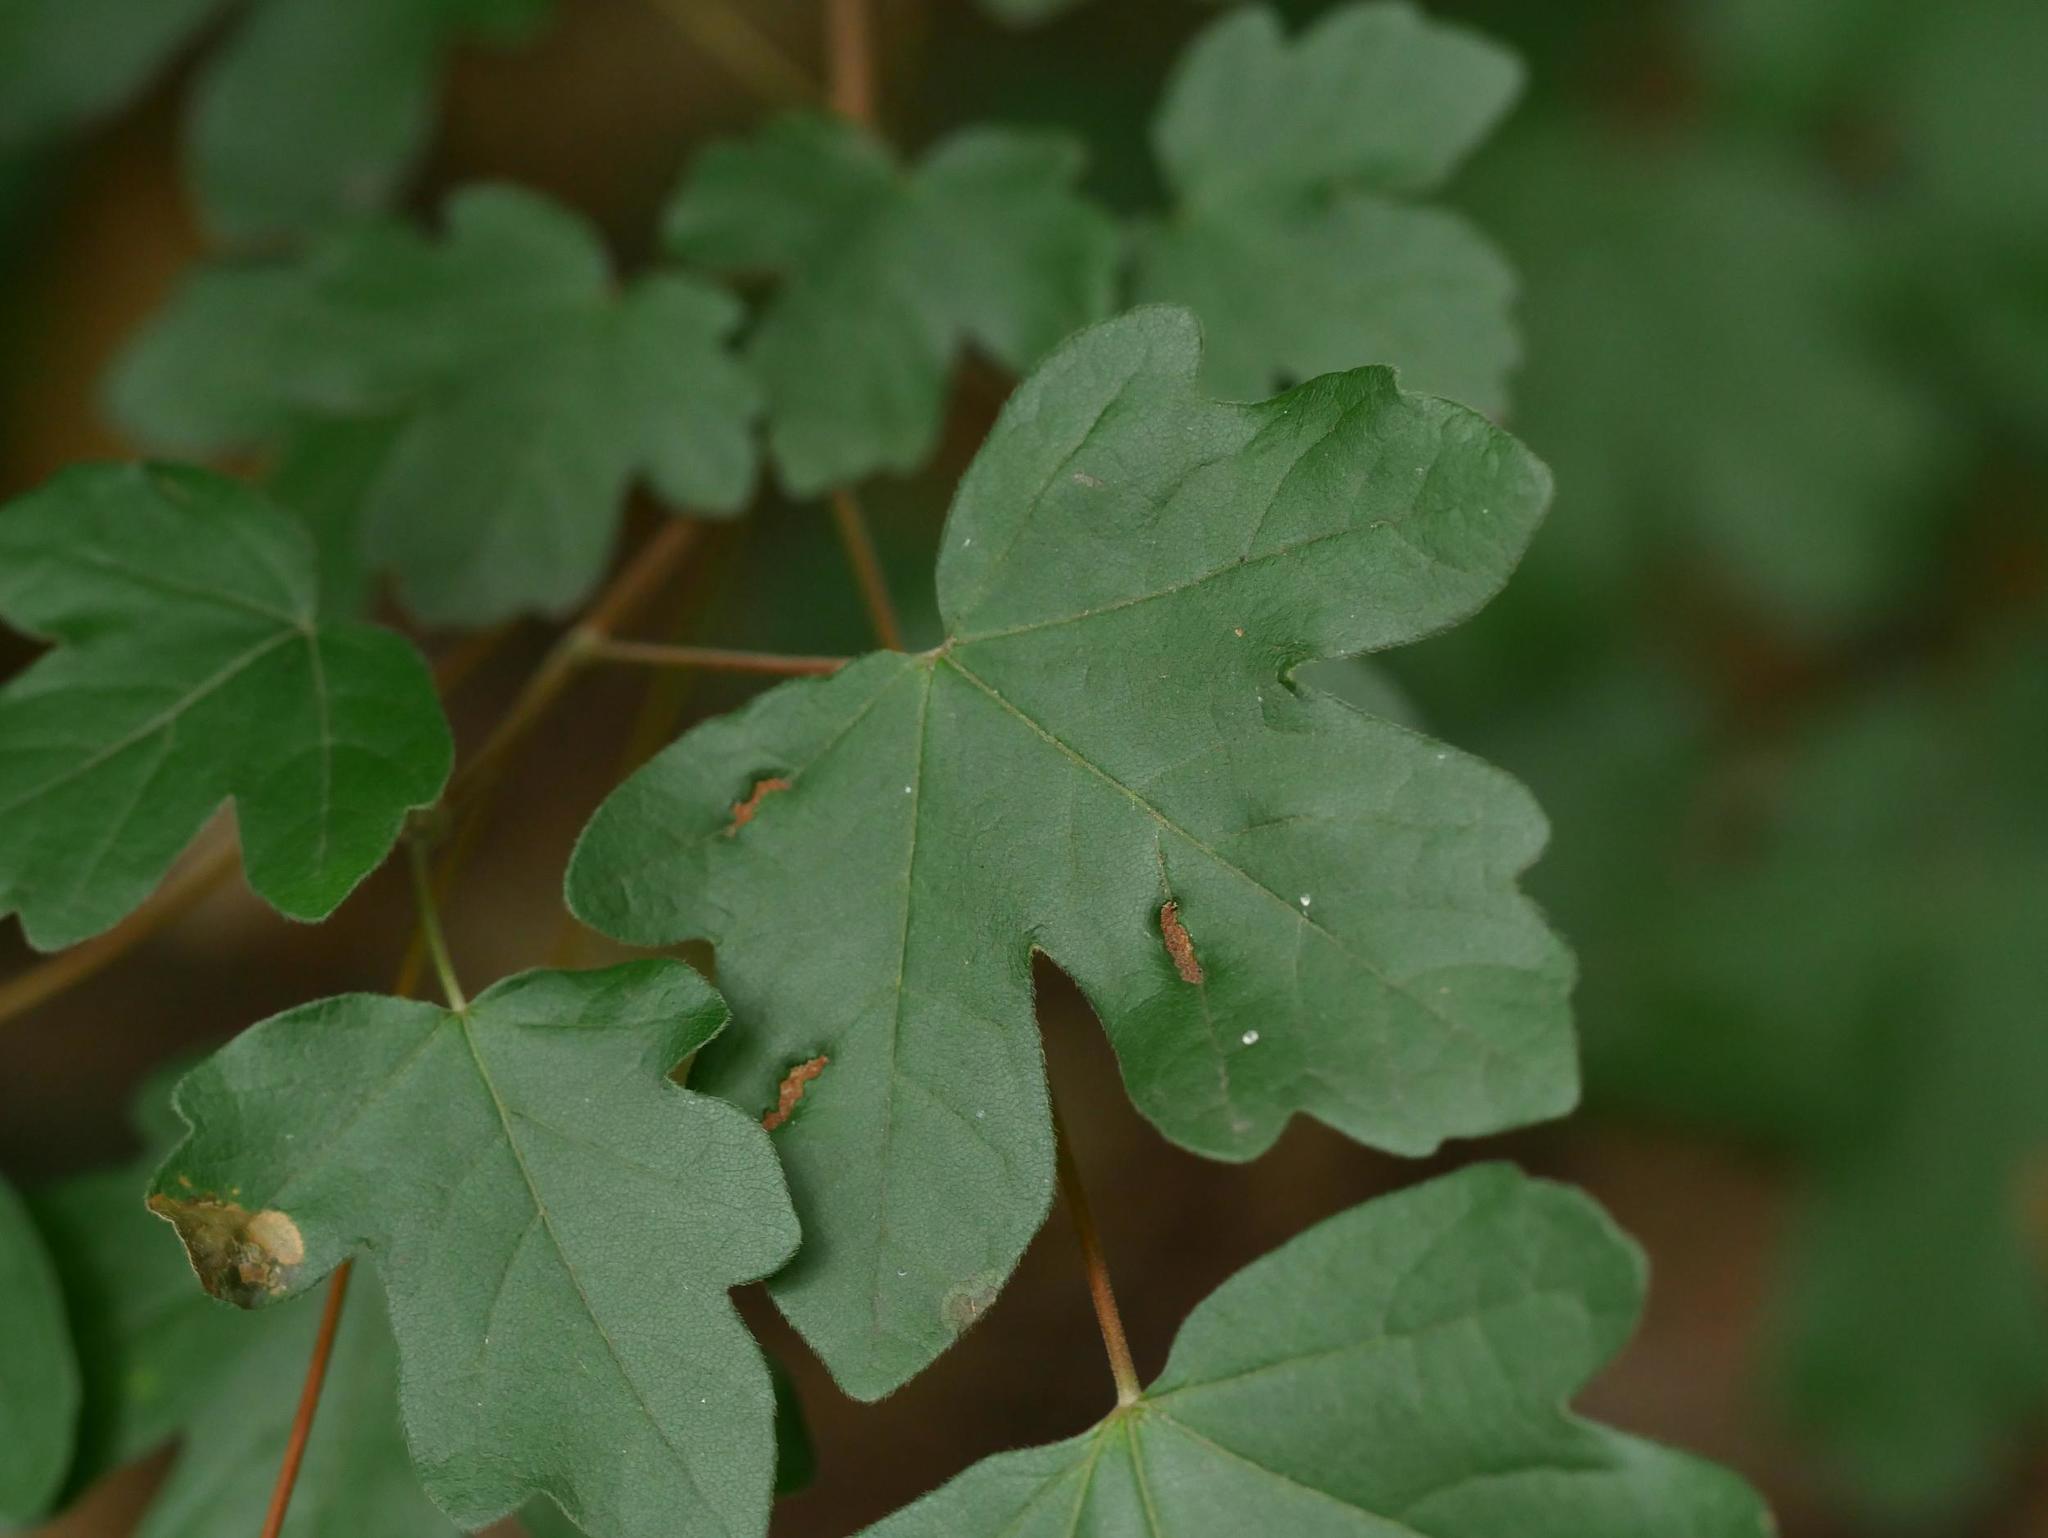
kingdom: Plantae
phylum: Tracheophyta
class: Magnoliopsida
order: Sapindales
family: Sapindaceae
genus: Acer
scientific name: Acer campestre
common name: Field maple
